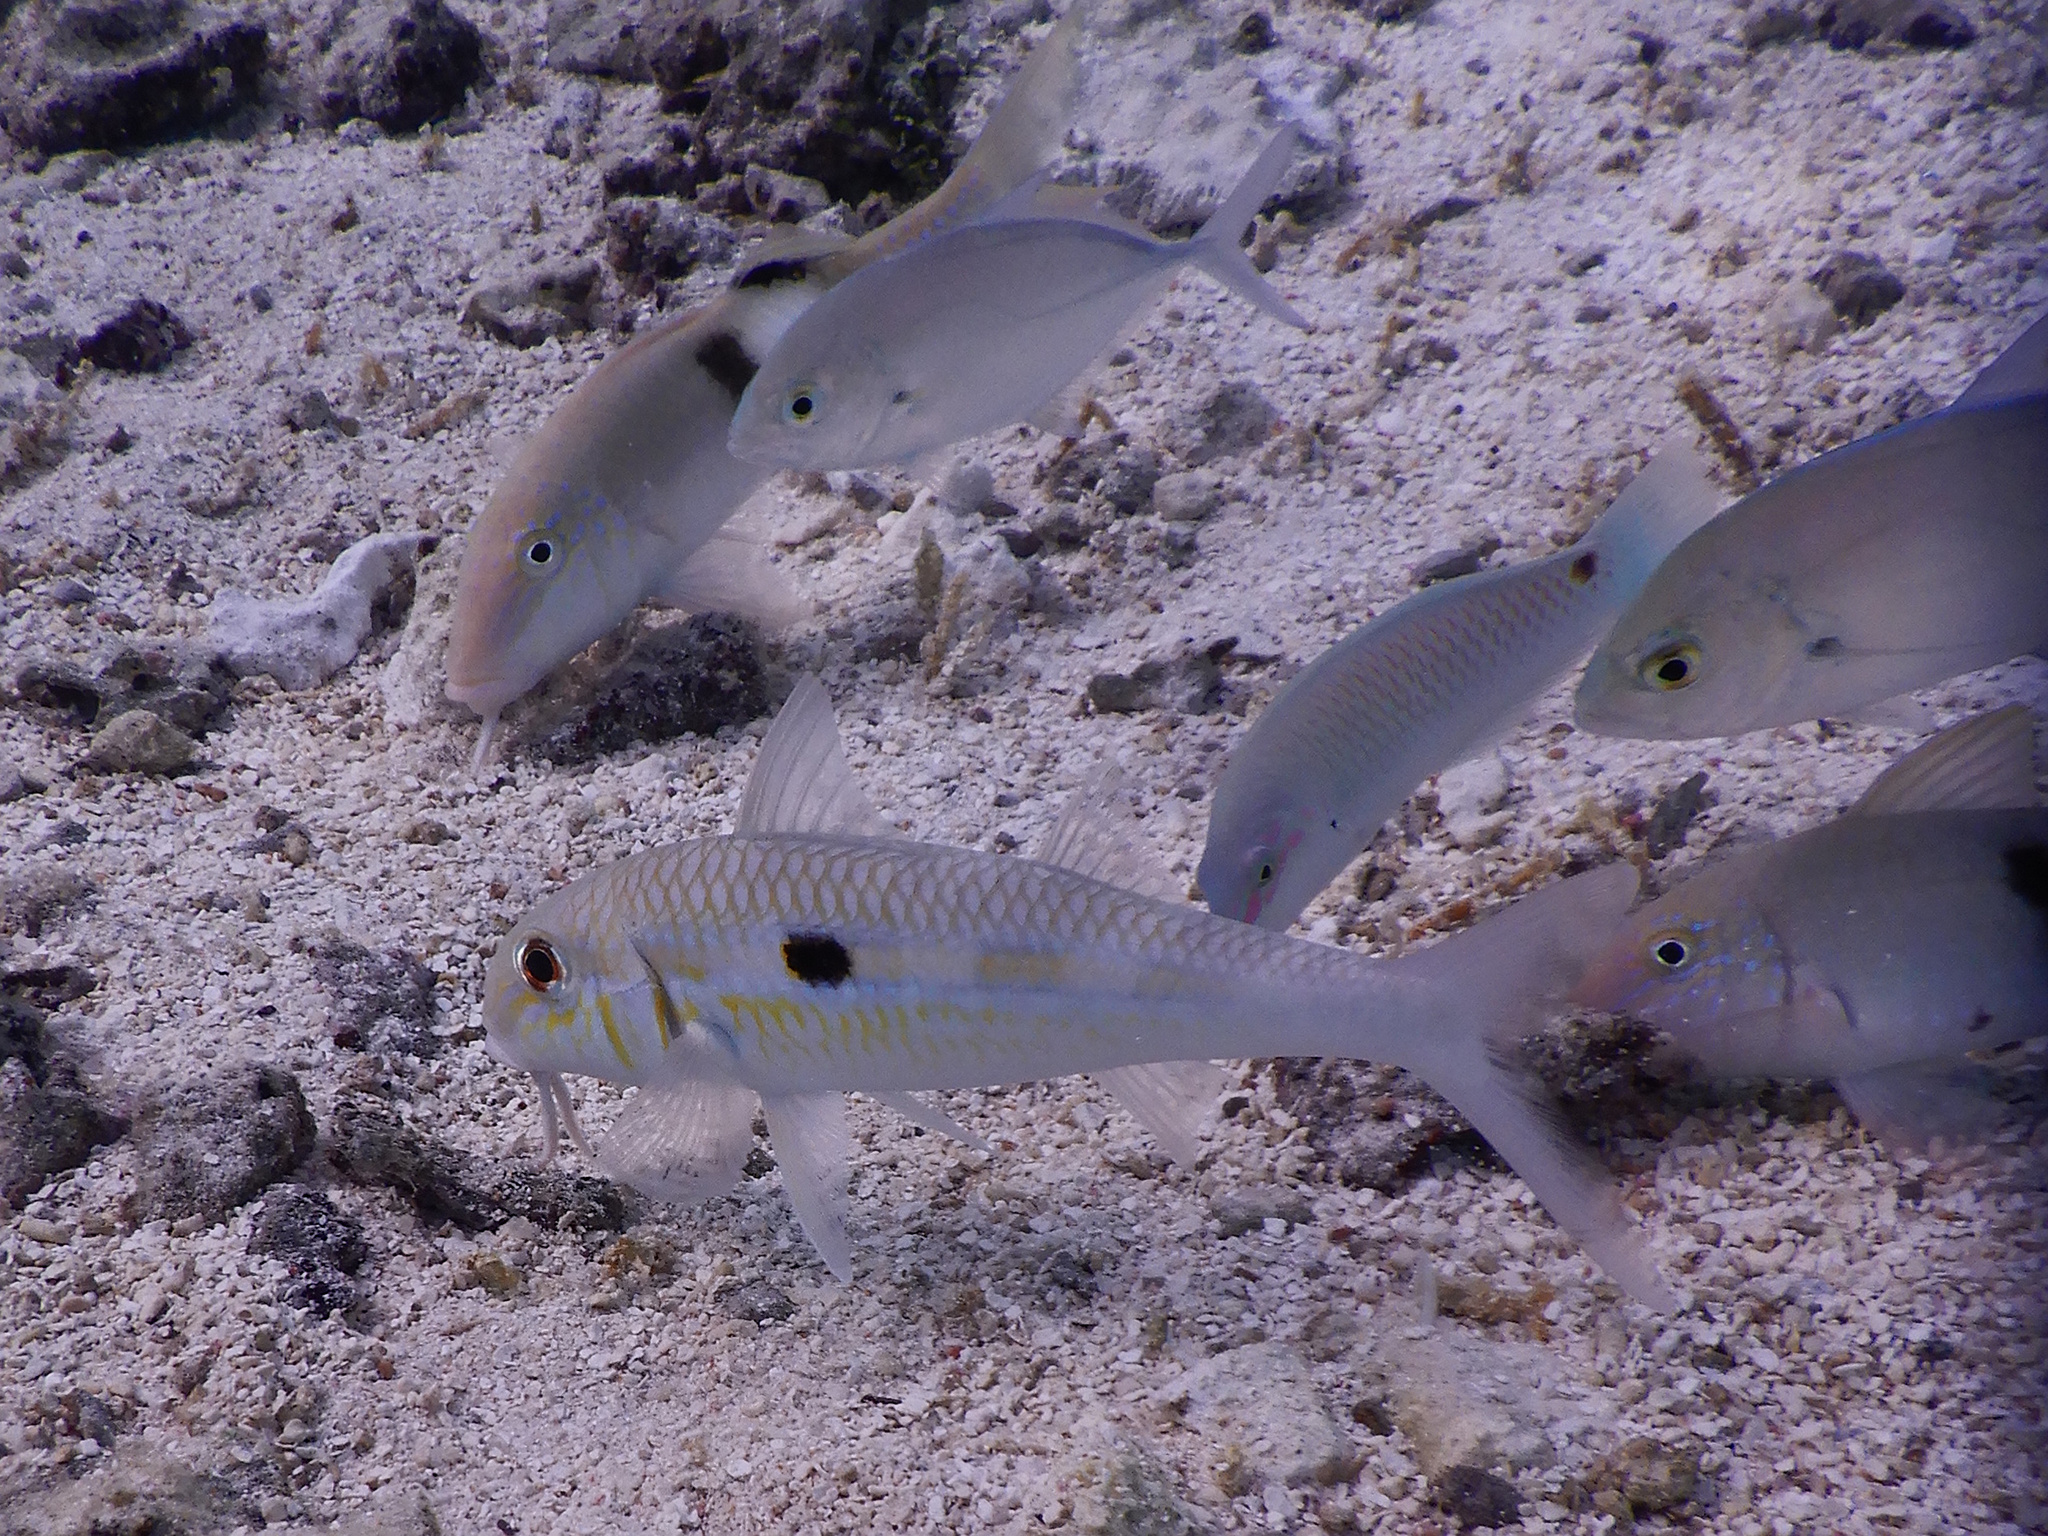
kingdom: Animalia
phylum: Chordata
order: Perciformes
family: Mullidae
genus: Mulloidichthys
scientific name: Mulloidichthys flavolineatus
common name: Yellowstripe goatfish
